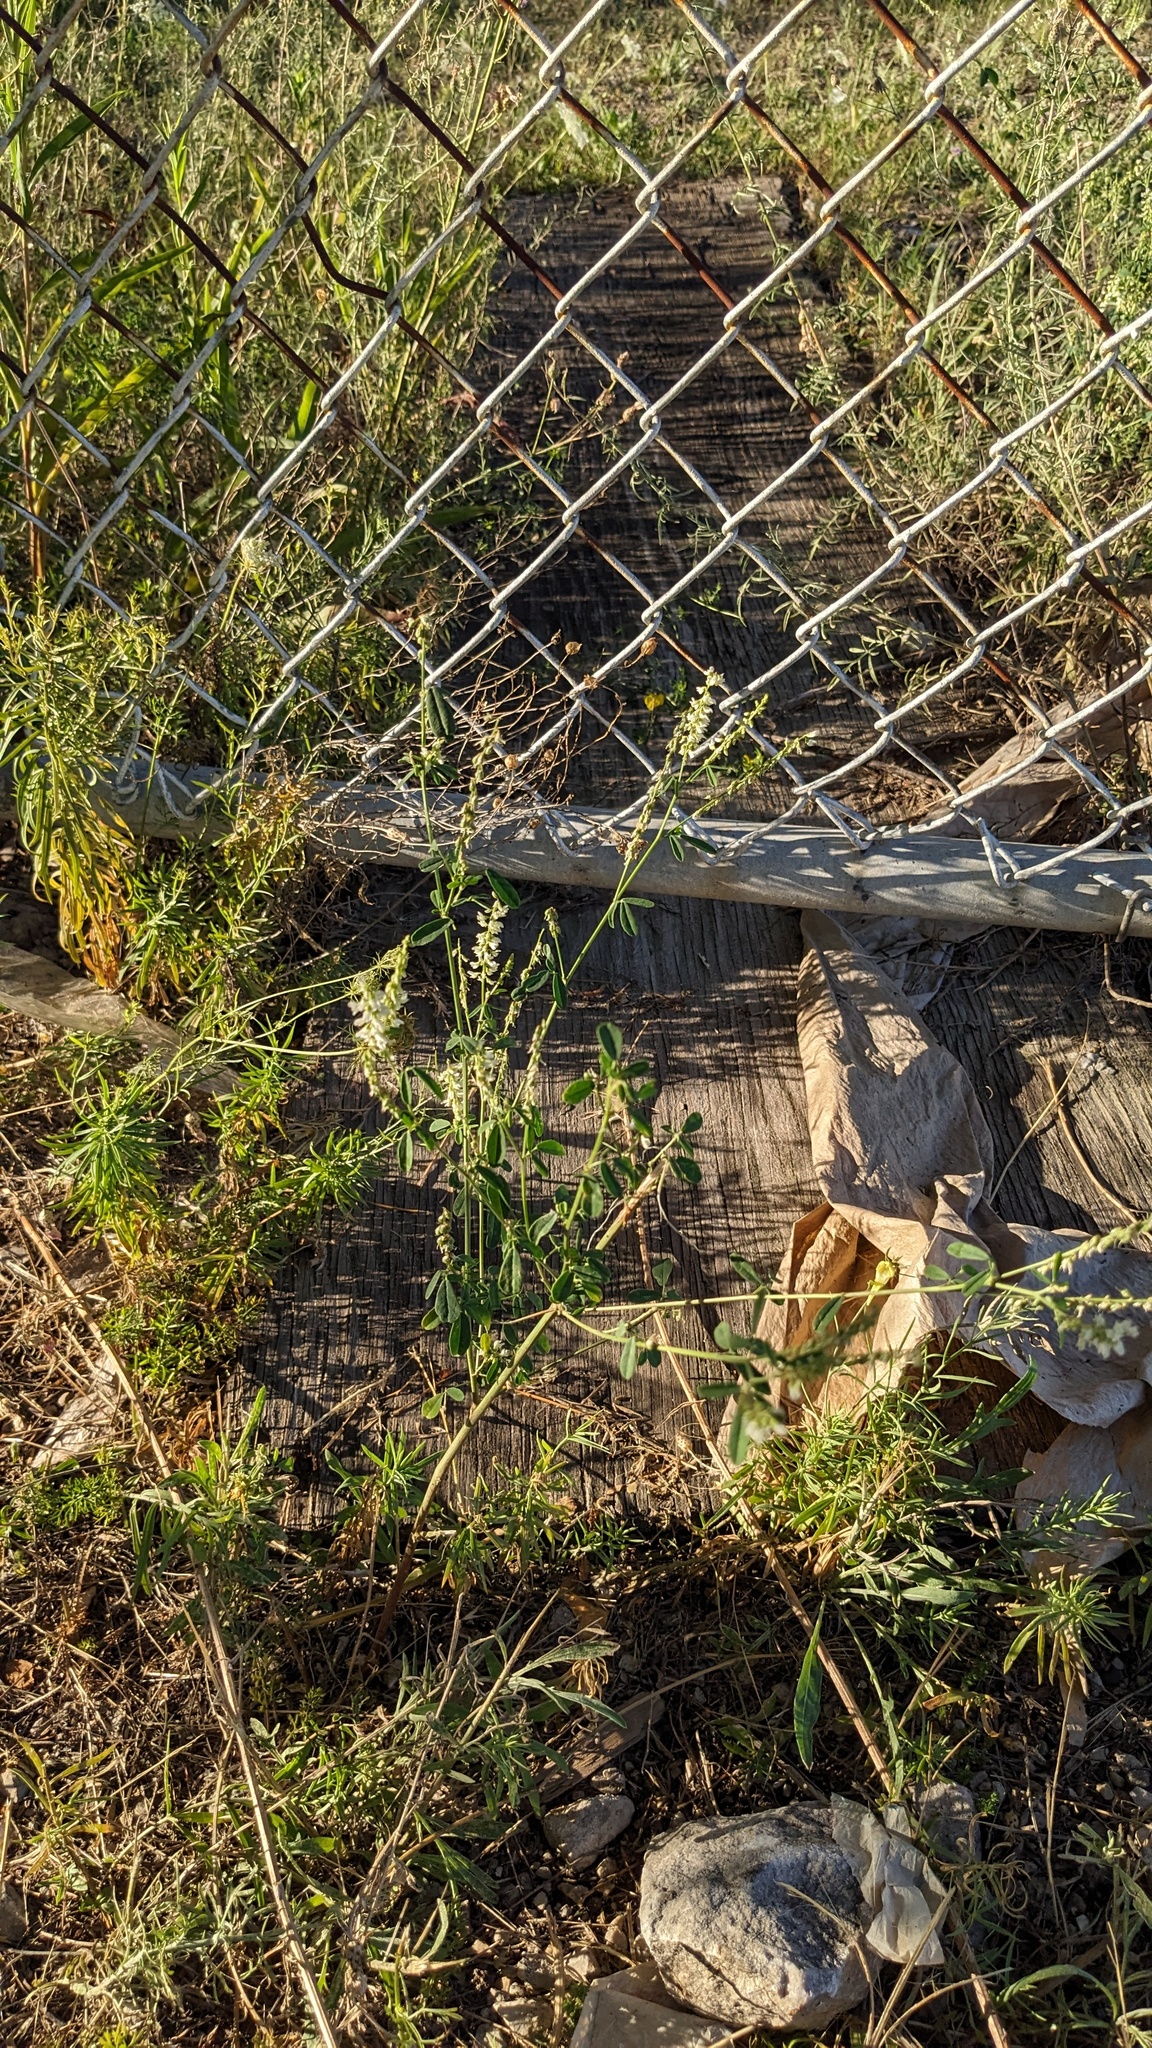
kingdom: Plantae
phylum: Tracheophyta
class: Magnoliopsida
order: Fabales
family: Fabaceae
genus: Melilotus
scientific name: Melilotus albus
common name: White melilot
